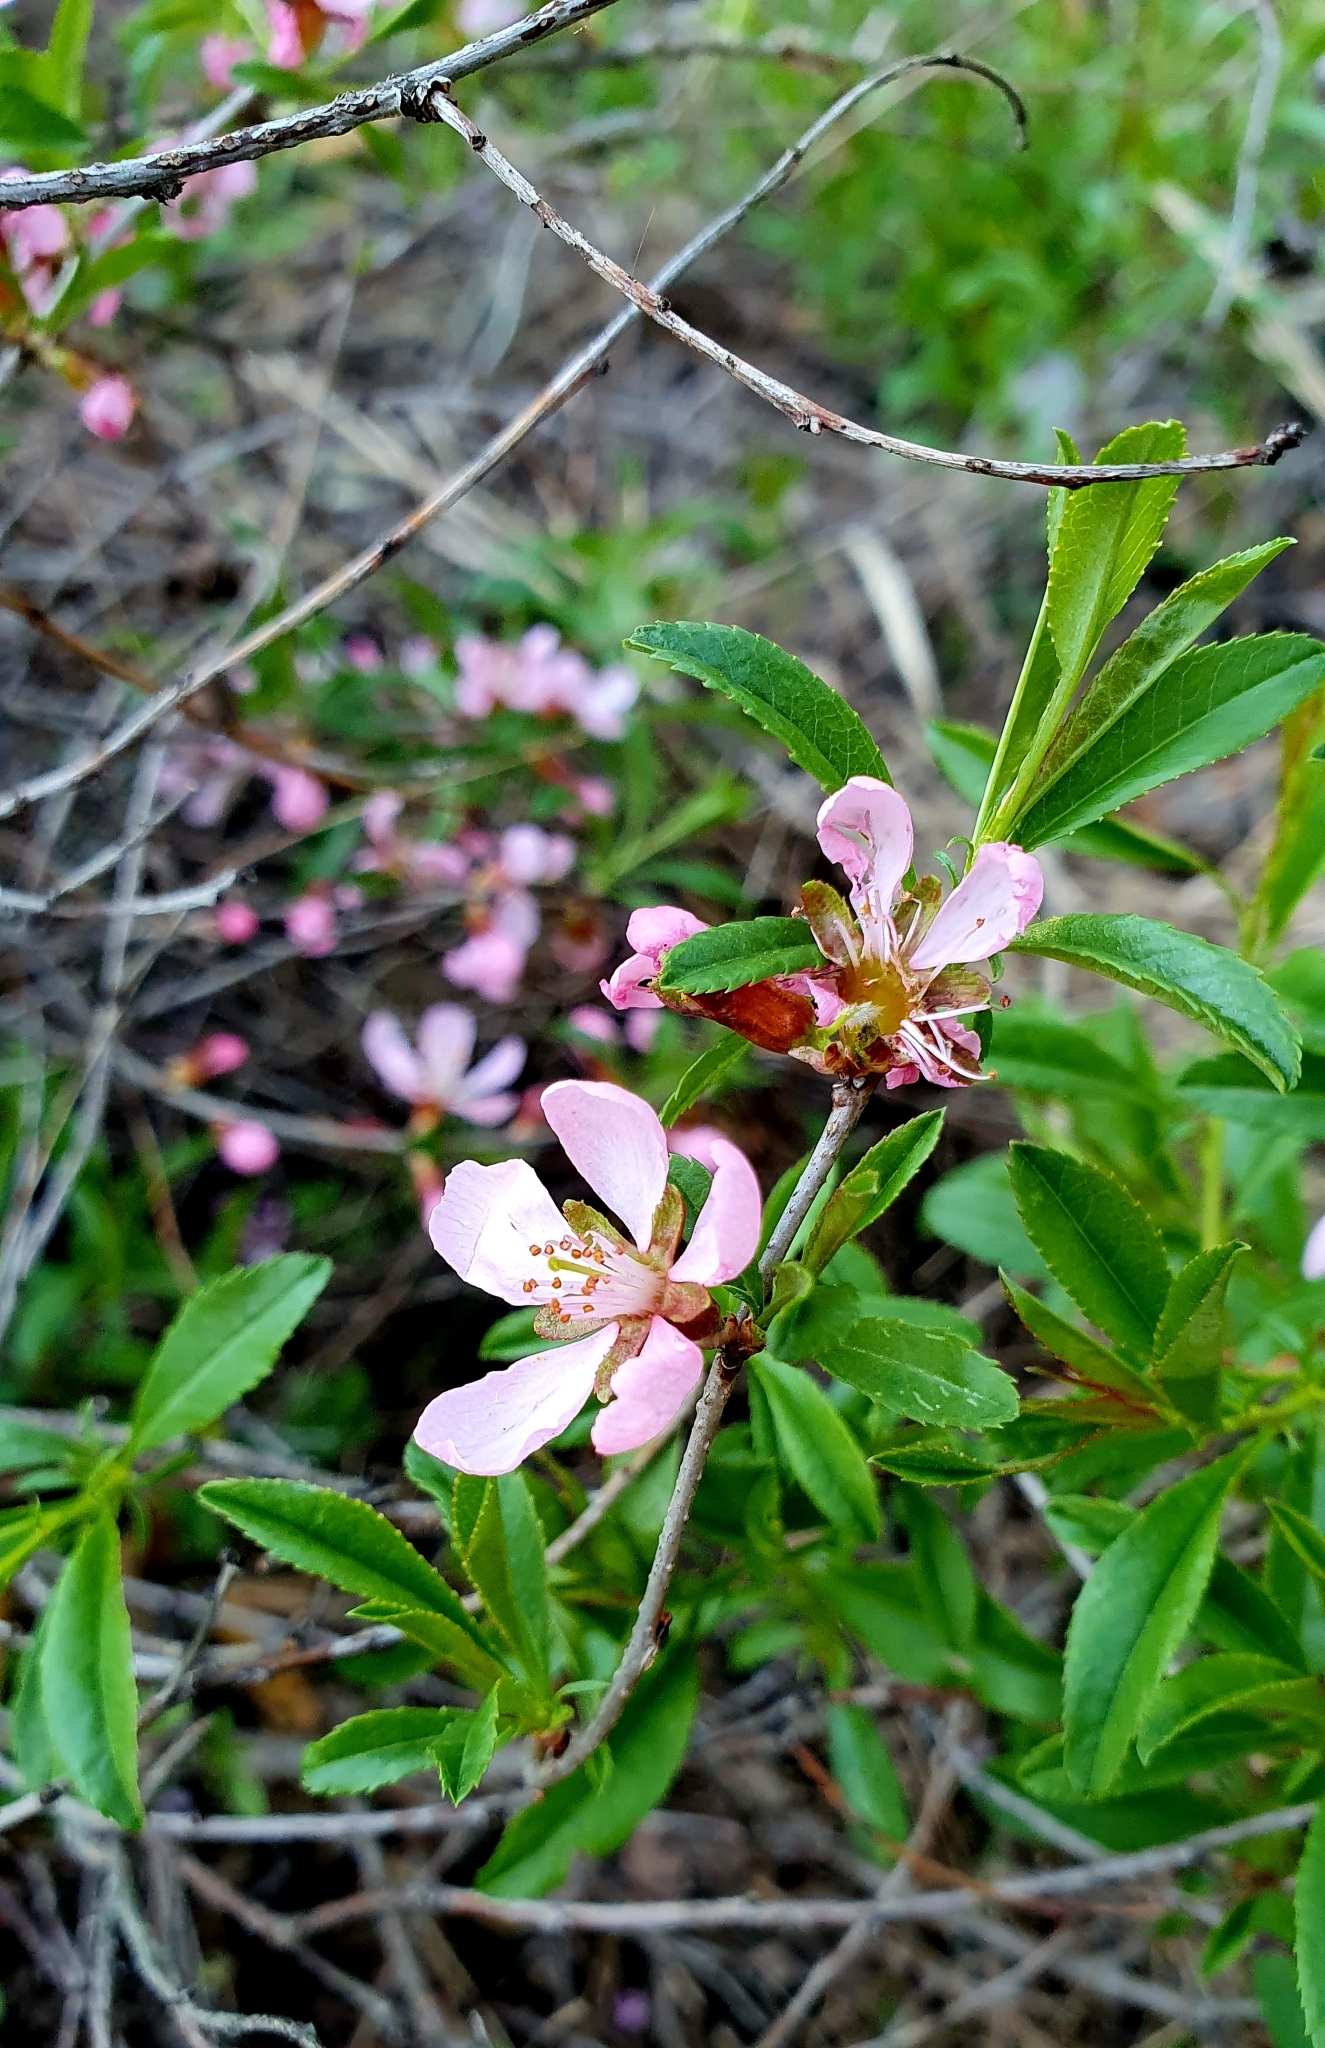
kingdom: Plantae
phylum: Tracheophyta
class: Magnoliopsida
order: Rosales
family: Rosaceae
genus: Prunus
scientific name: Prunus tenella
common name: Dwarf russian almond
